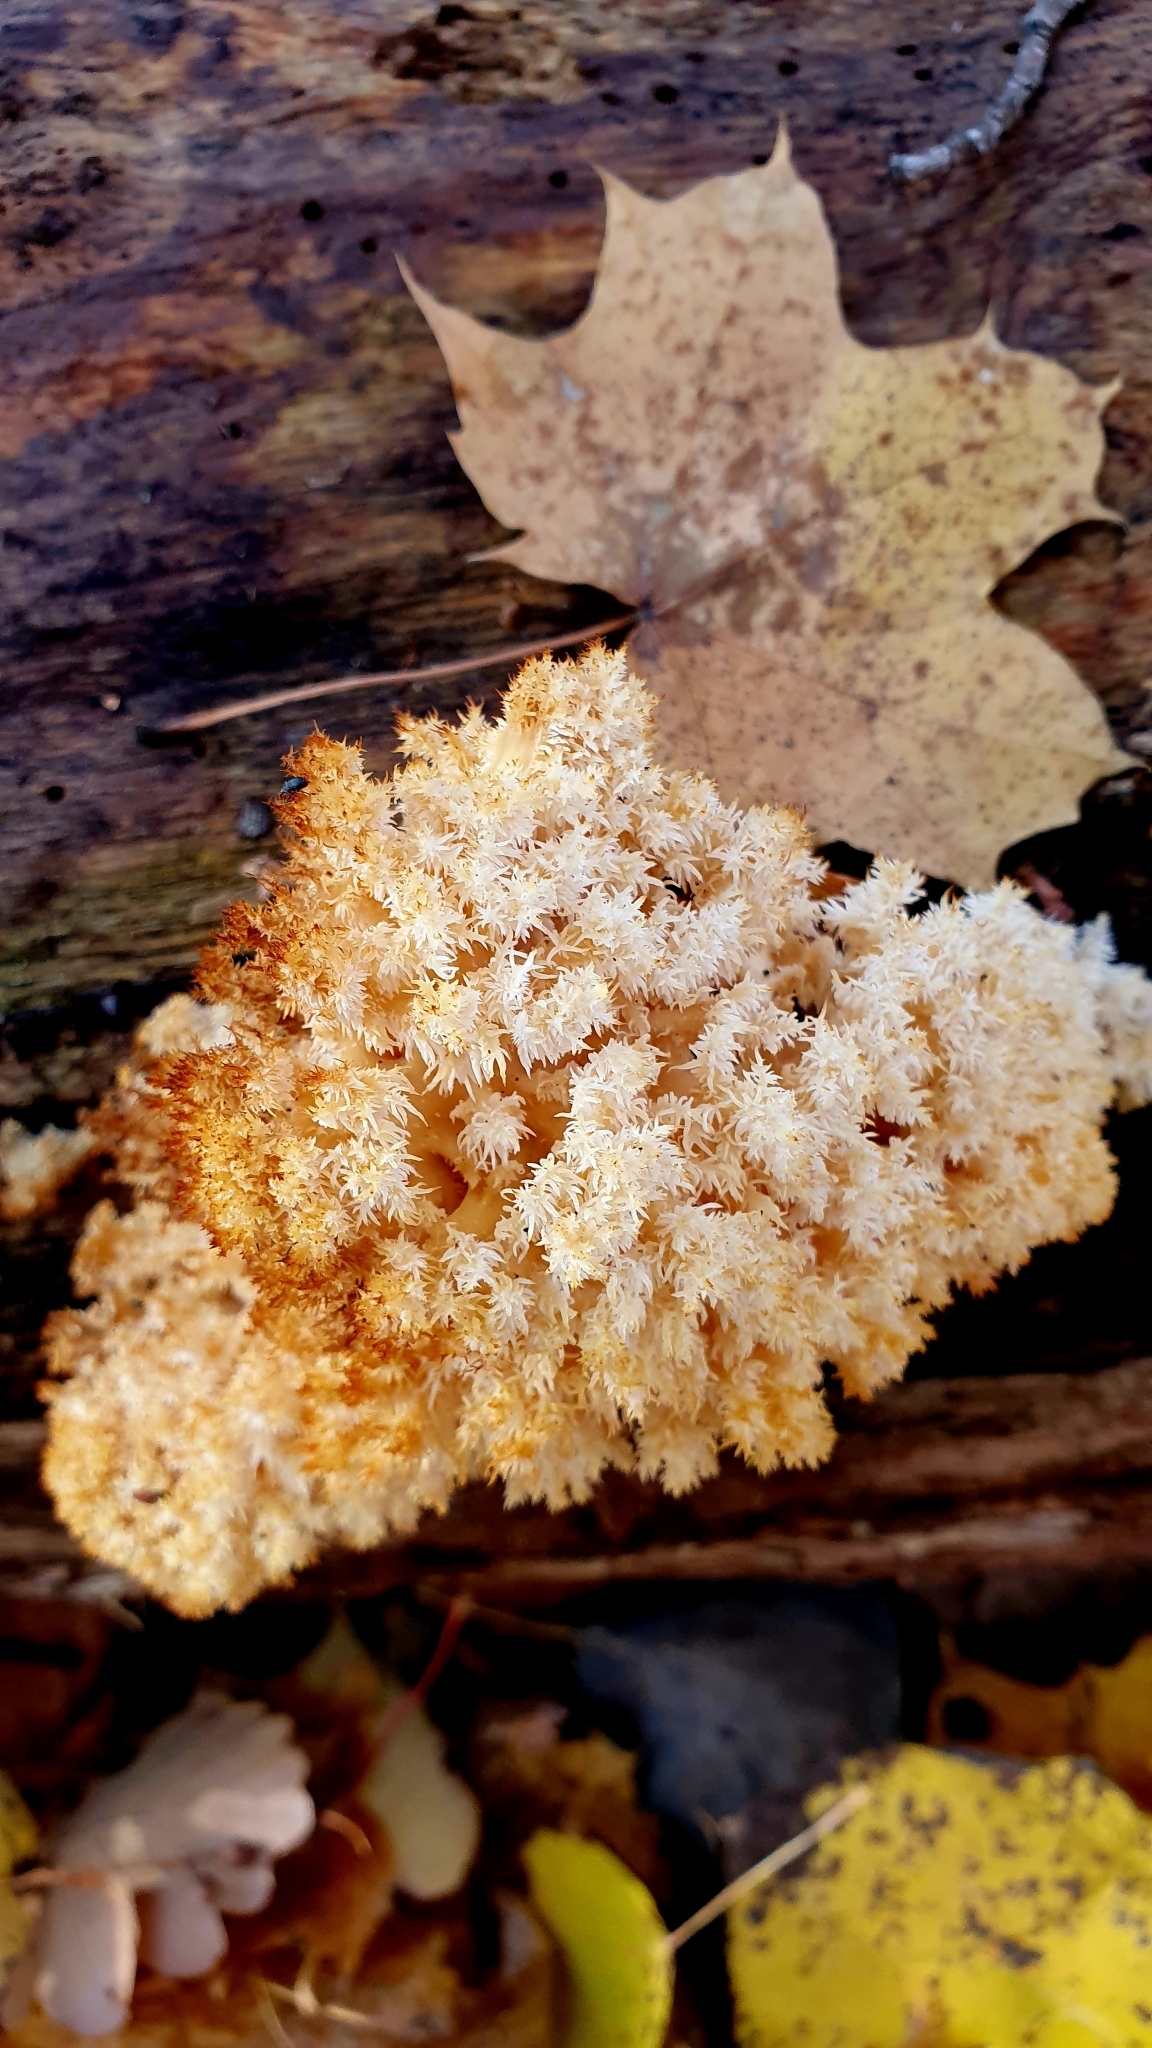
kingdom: Fungi
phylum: Basidiomycota
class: Agaricomycetes
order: Russulales
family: Hericiaceae
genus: Hericium
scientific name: Hericium coralloides
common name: Coral tooth
